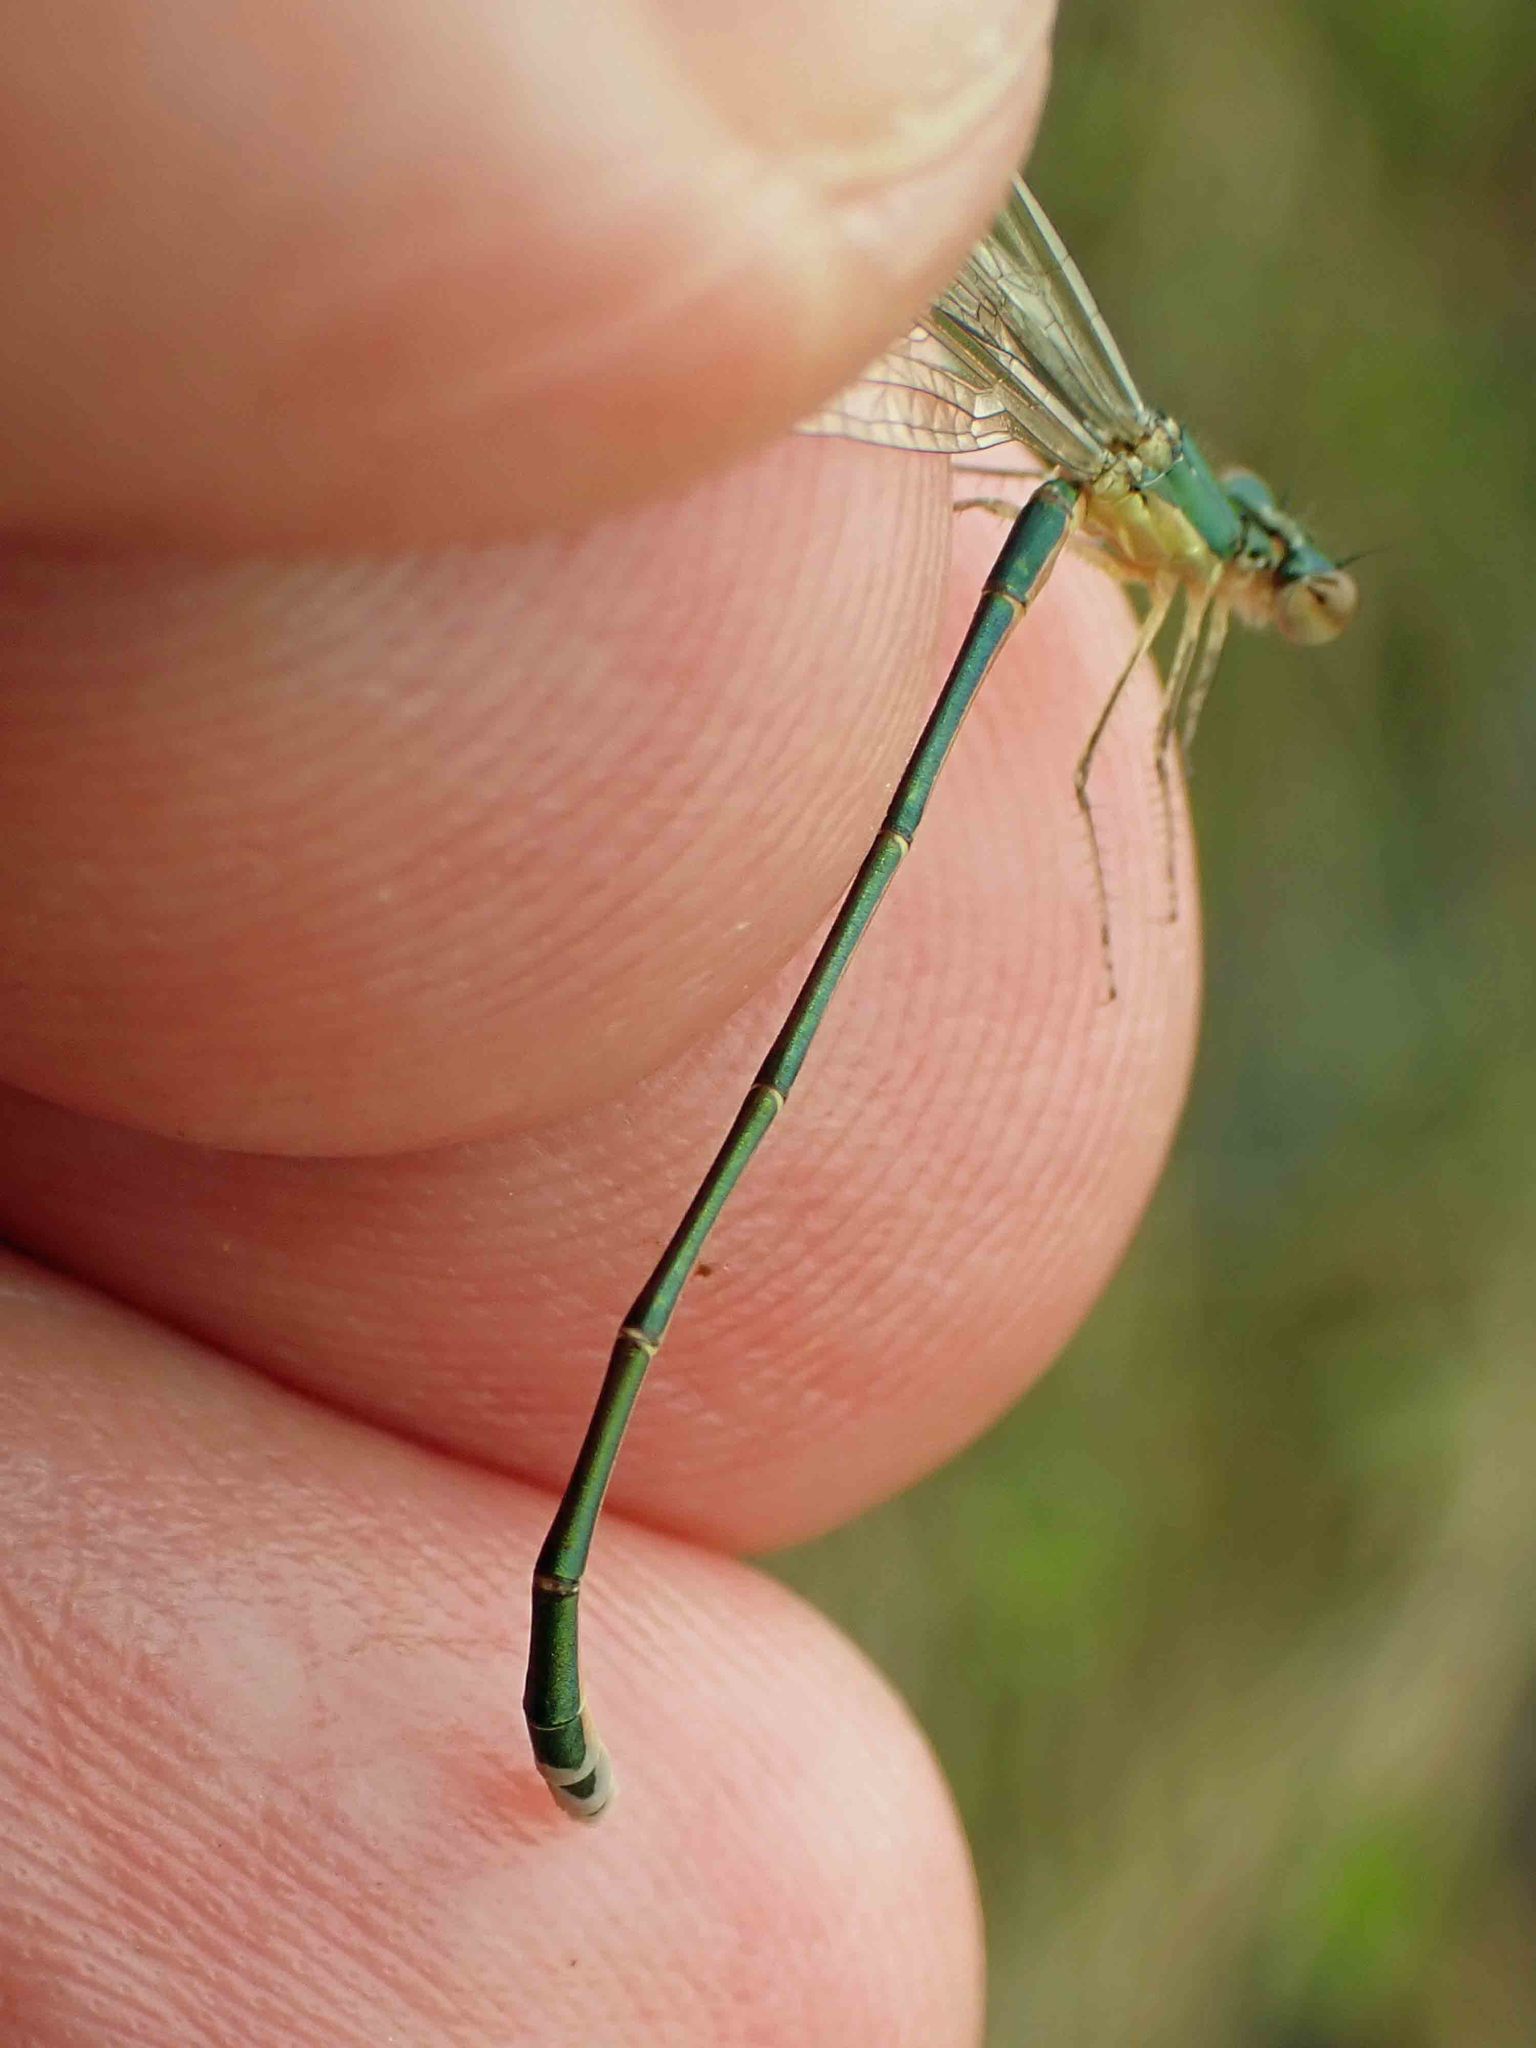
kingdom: Animalia
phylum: Arthropoda
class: Insecta
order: Odonata
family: Coenagrionidae
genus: Nehalennia
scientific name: Nehalennia irene
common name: Sedge sprite
